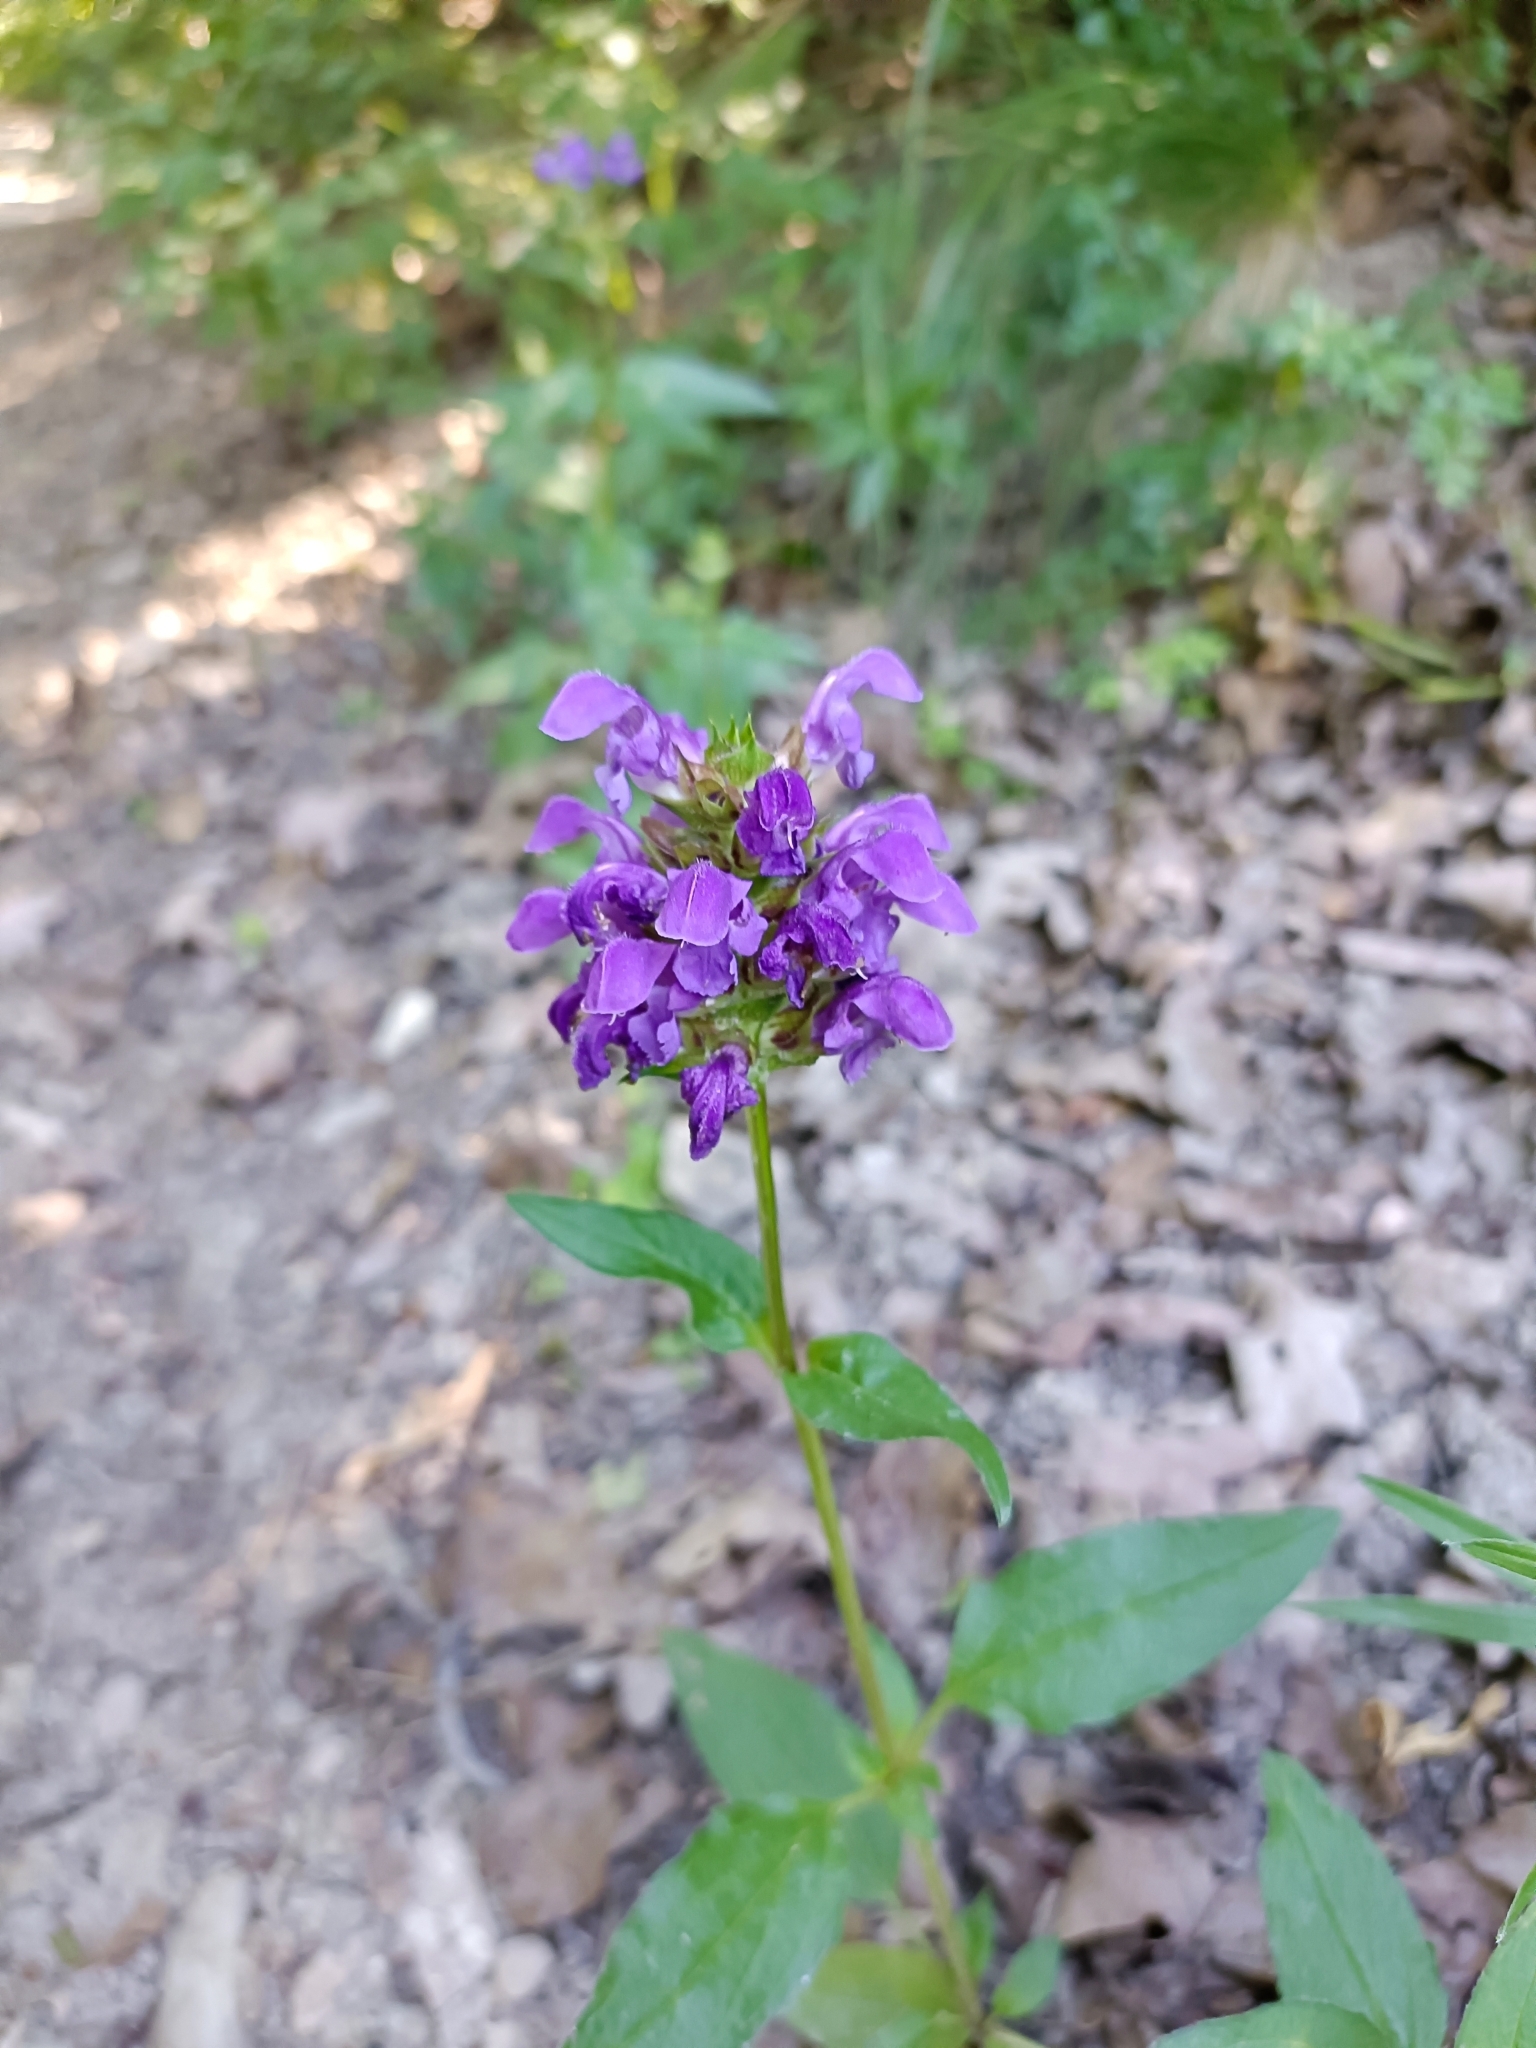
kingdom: Plantae
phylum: Tracheophyta
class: Magnoliopsida
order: Lamiales
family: Lamiaceae
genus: Prunella
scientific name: Prunella grandiflora
